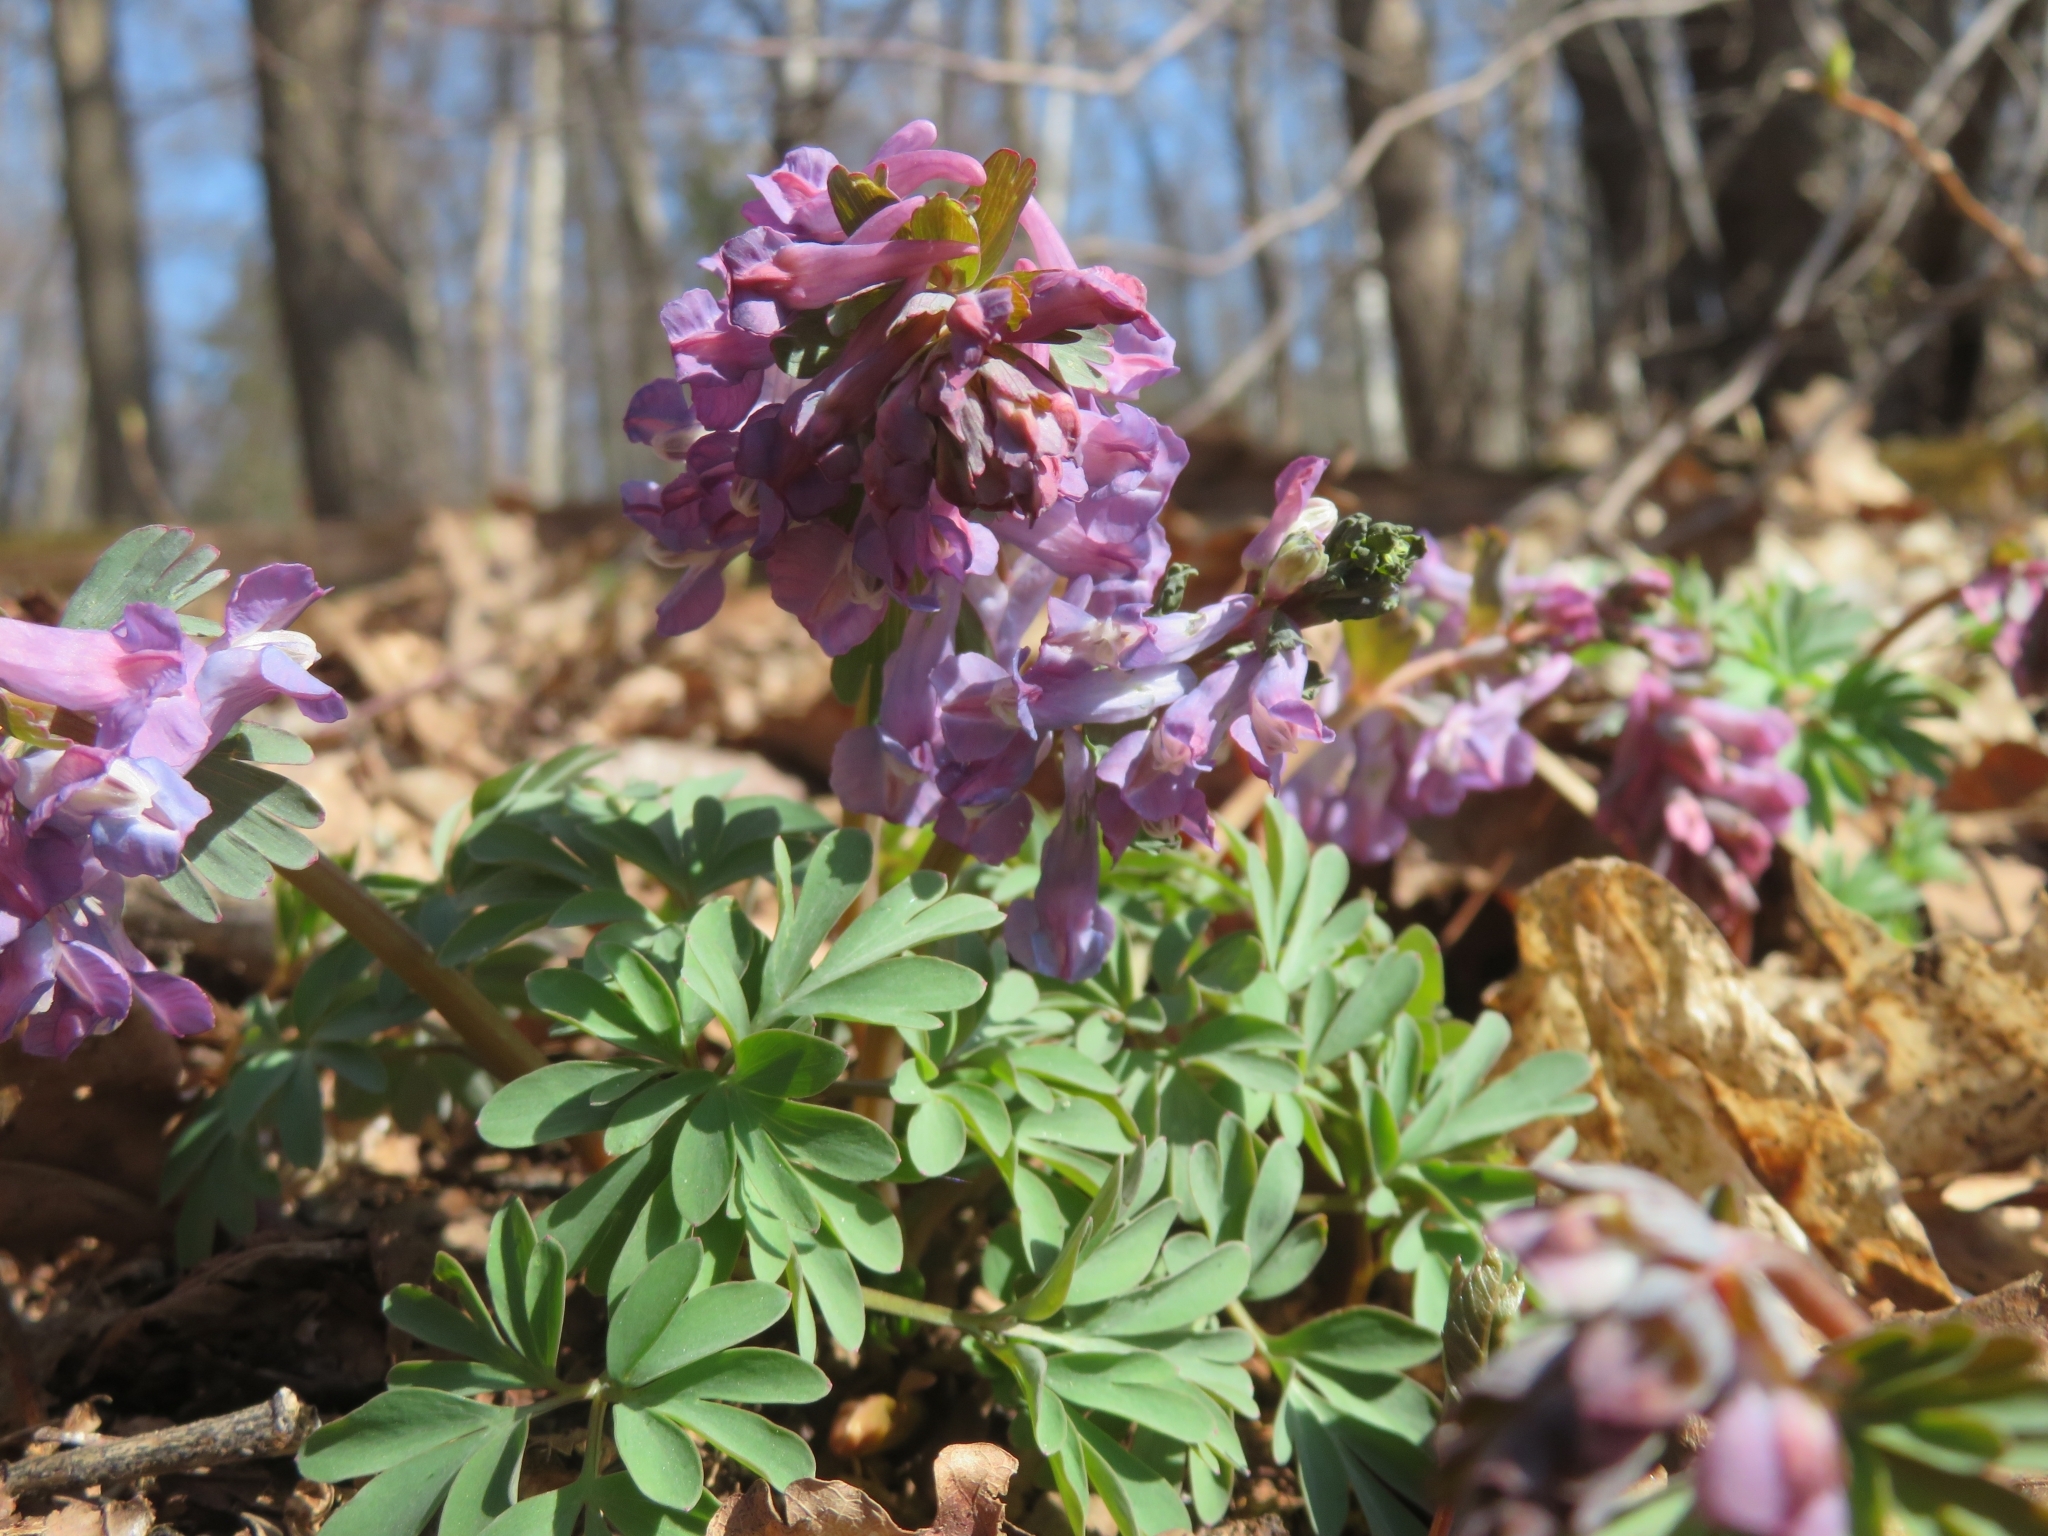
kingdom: Plantae
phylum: Tracheophyta
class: Magnoliopsida
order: Ranunculales
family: Papaveraceae
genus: Corydalis
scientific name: Corydalis solida
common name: Bird-in-a-bush
